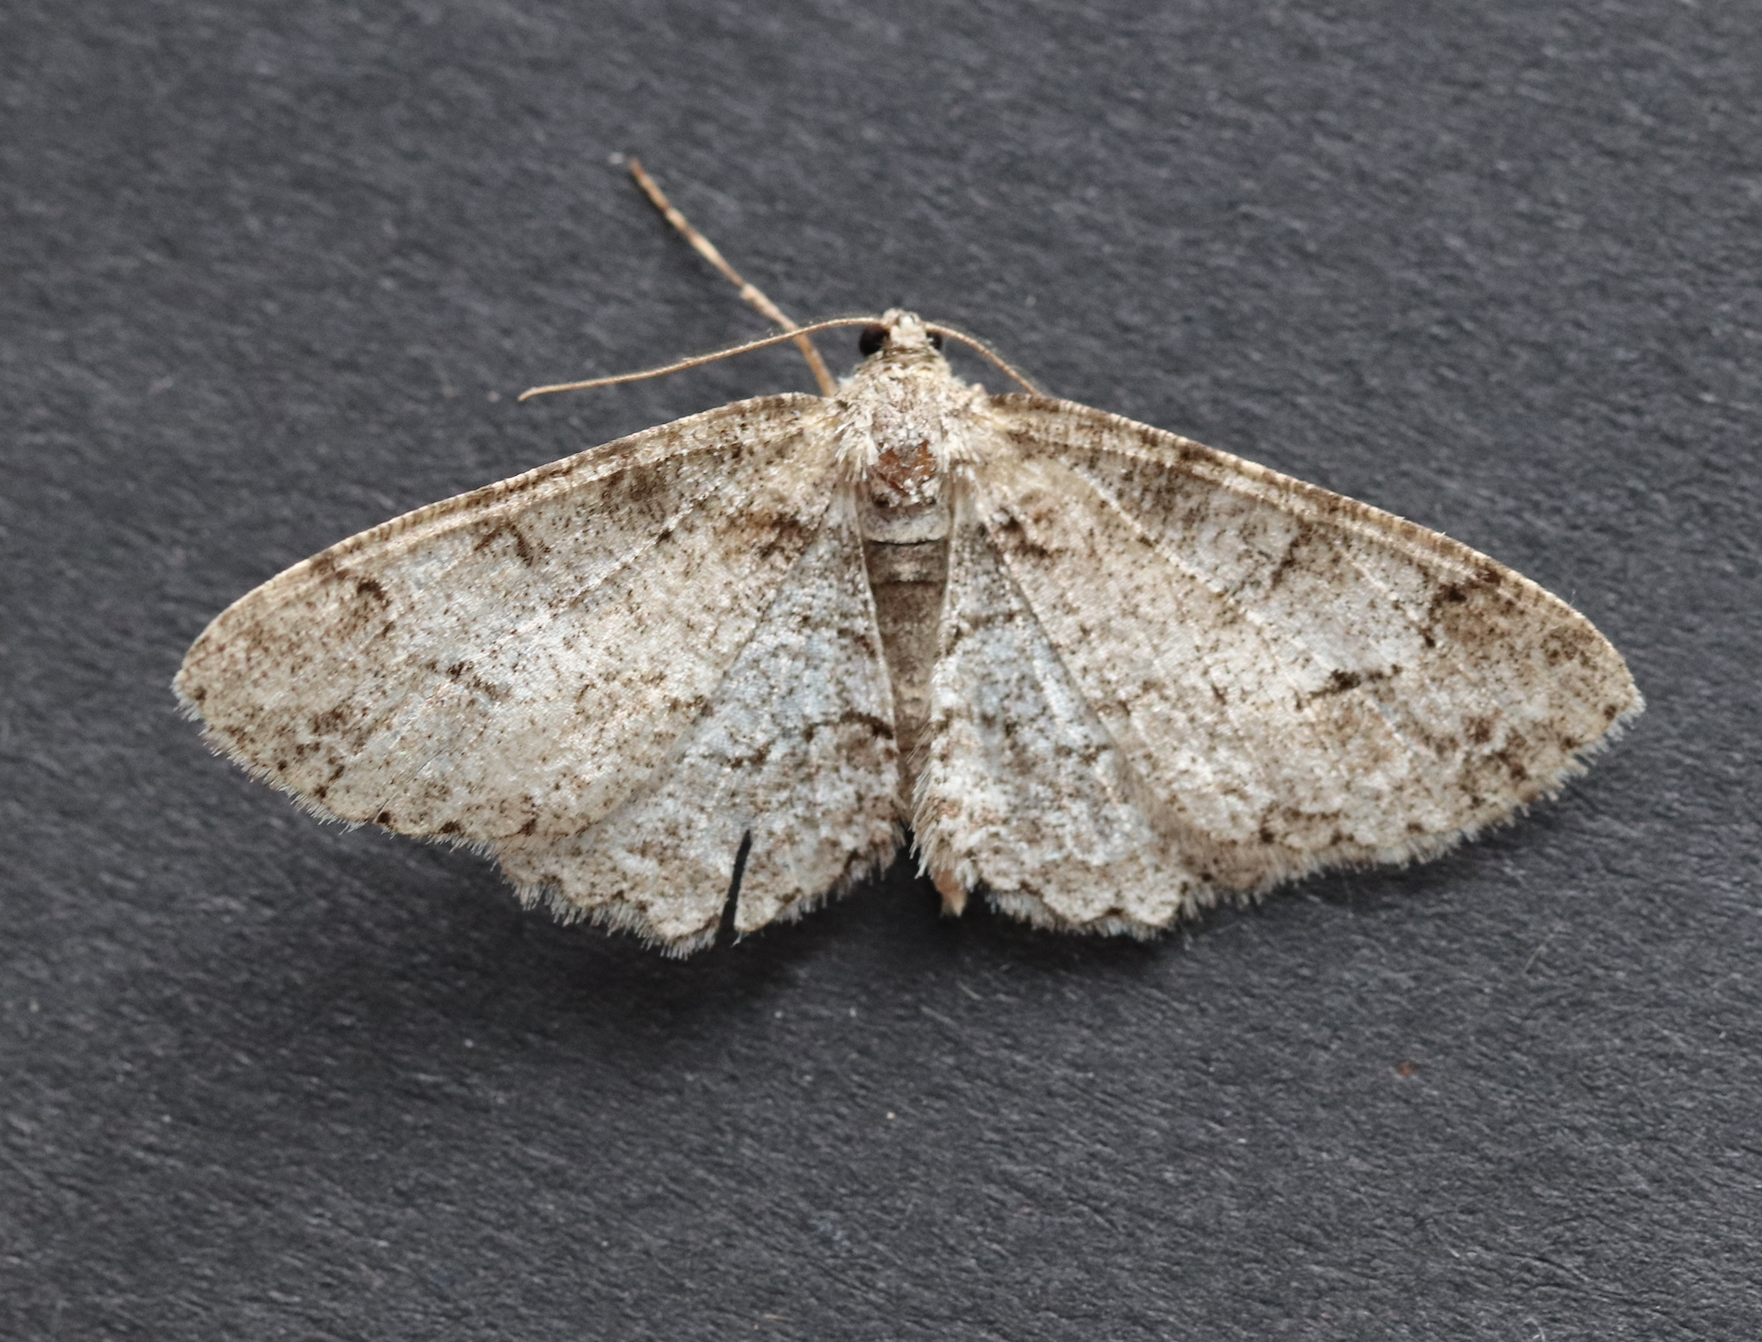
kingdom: Animalia
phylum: Arthropoda
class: Insecta
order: Lepidoptera
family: Geometridae
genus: Paradarisa
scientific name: Paradarisa consonaria
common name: Square spot
